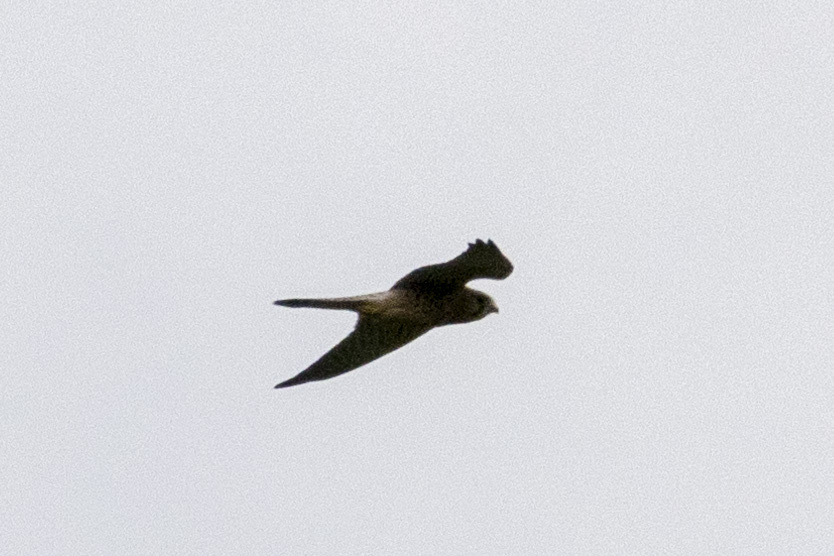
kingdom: Animalia
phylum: Chordata
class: Aves
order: Falconiformes
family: Falconidae
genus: Falco
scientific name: Falco tinnunculus
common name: Common kestrel
